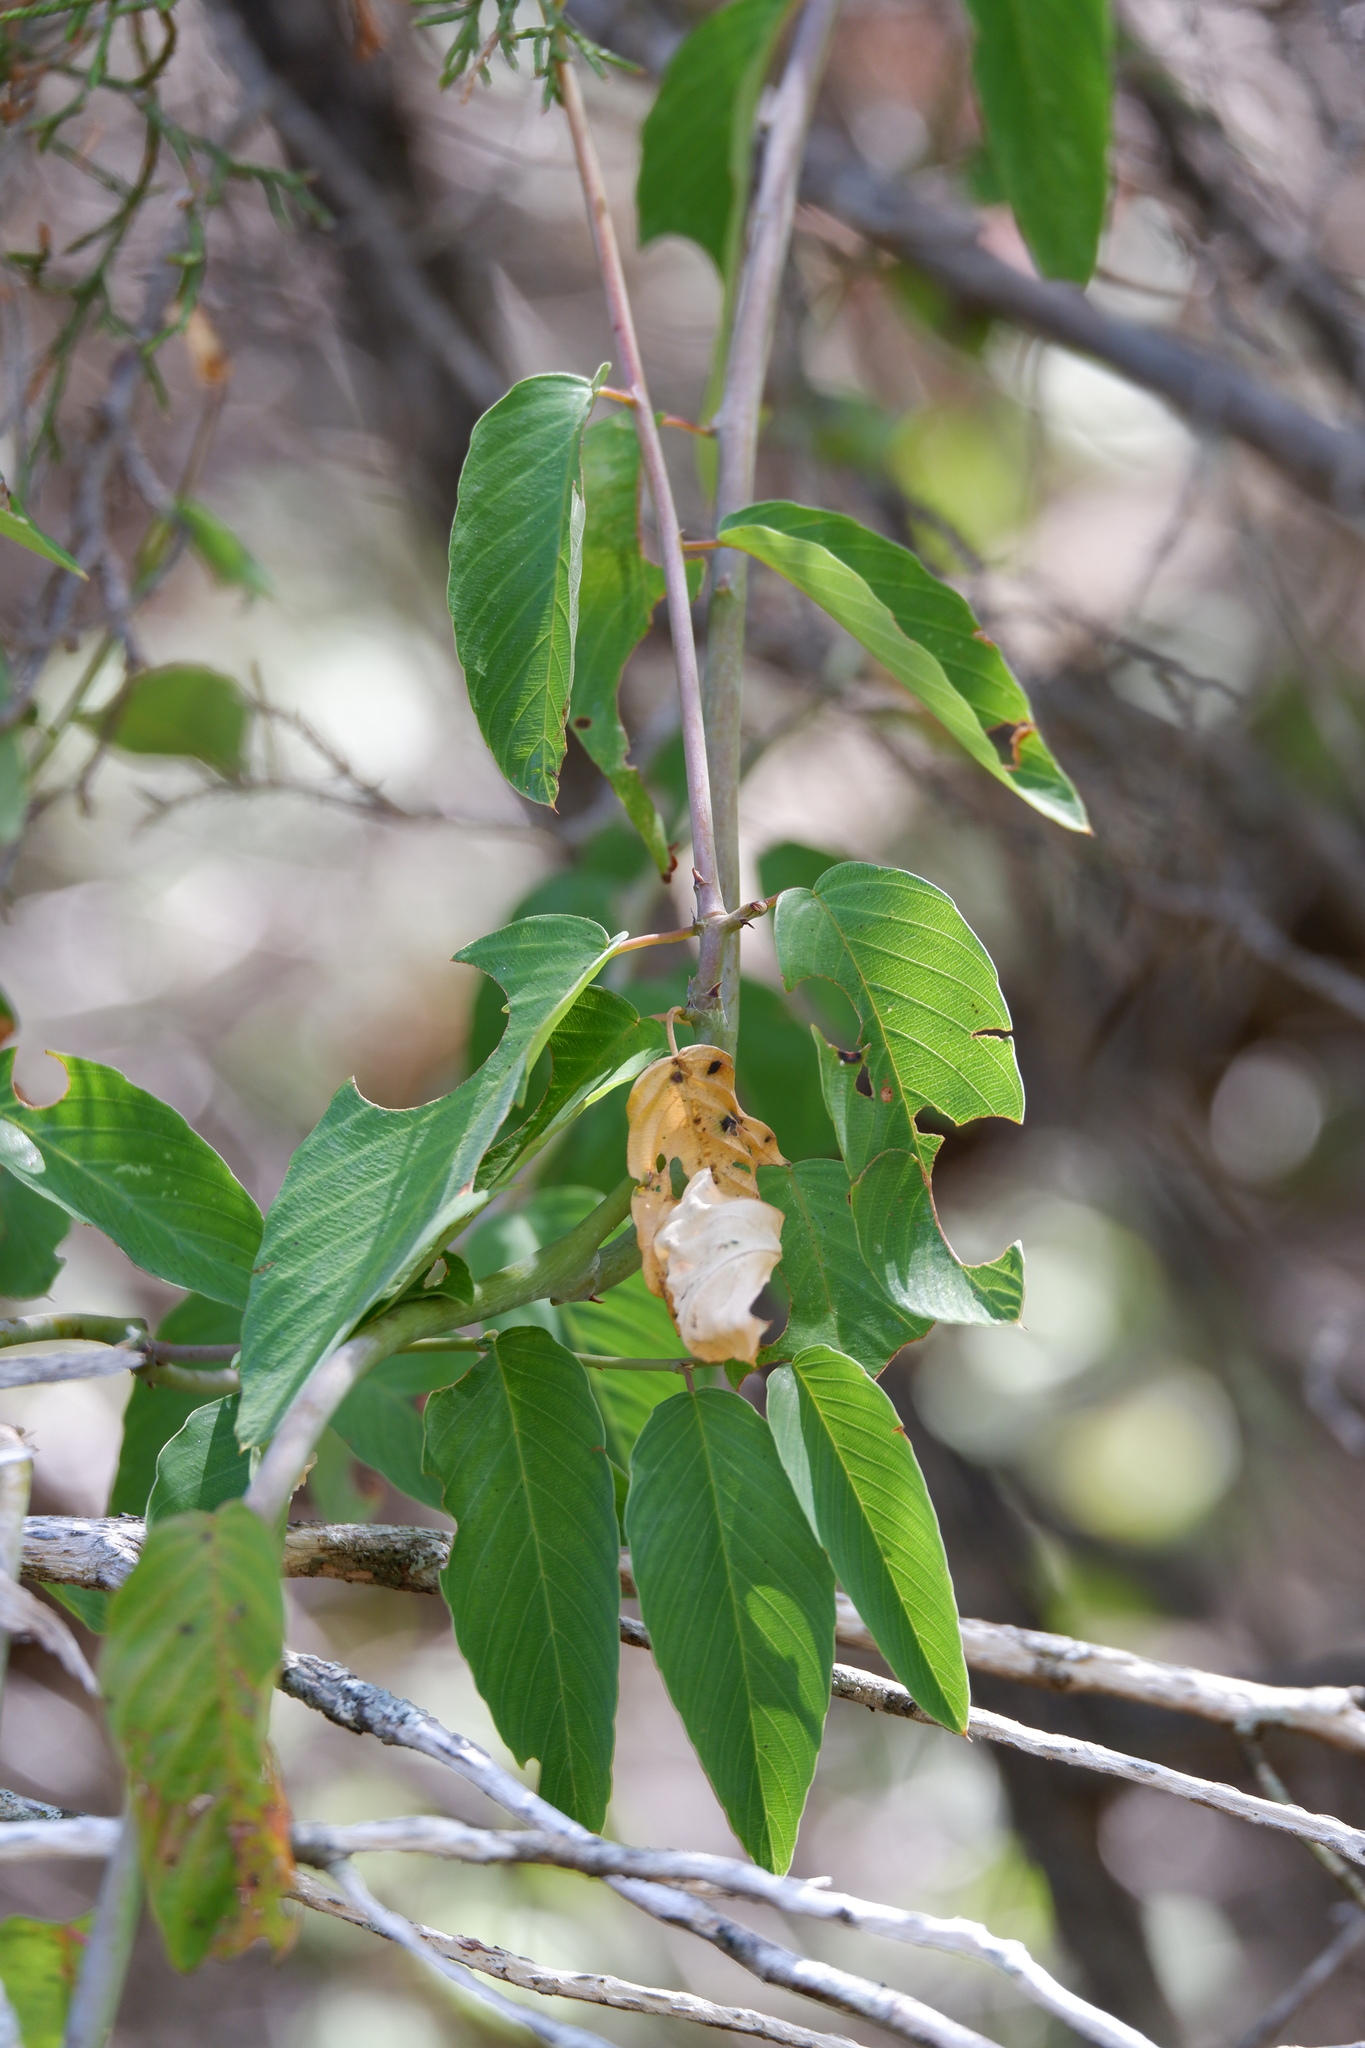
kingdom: Plantae
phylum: Tracheophyta
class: Magnoliopsida
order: Rosales
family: Rhamnaceae
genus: Berchemia
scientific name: Berchemia scandens
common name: Supplejack
